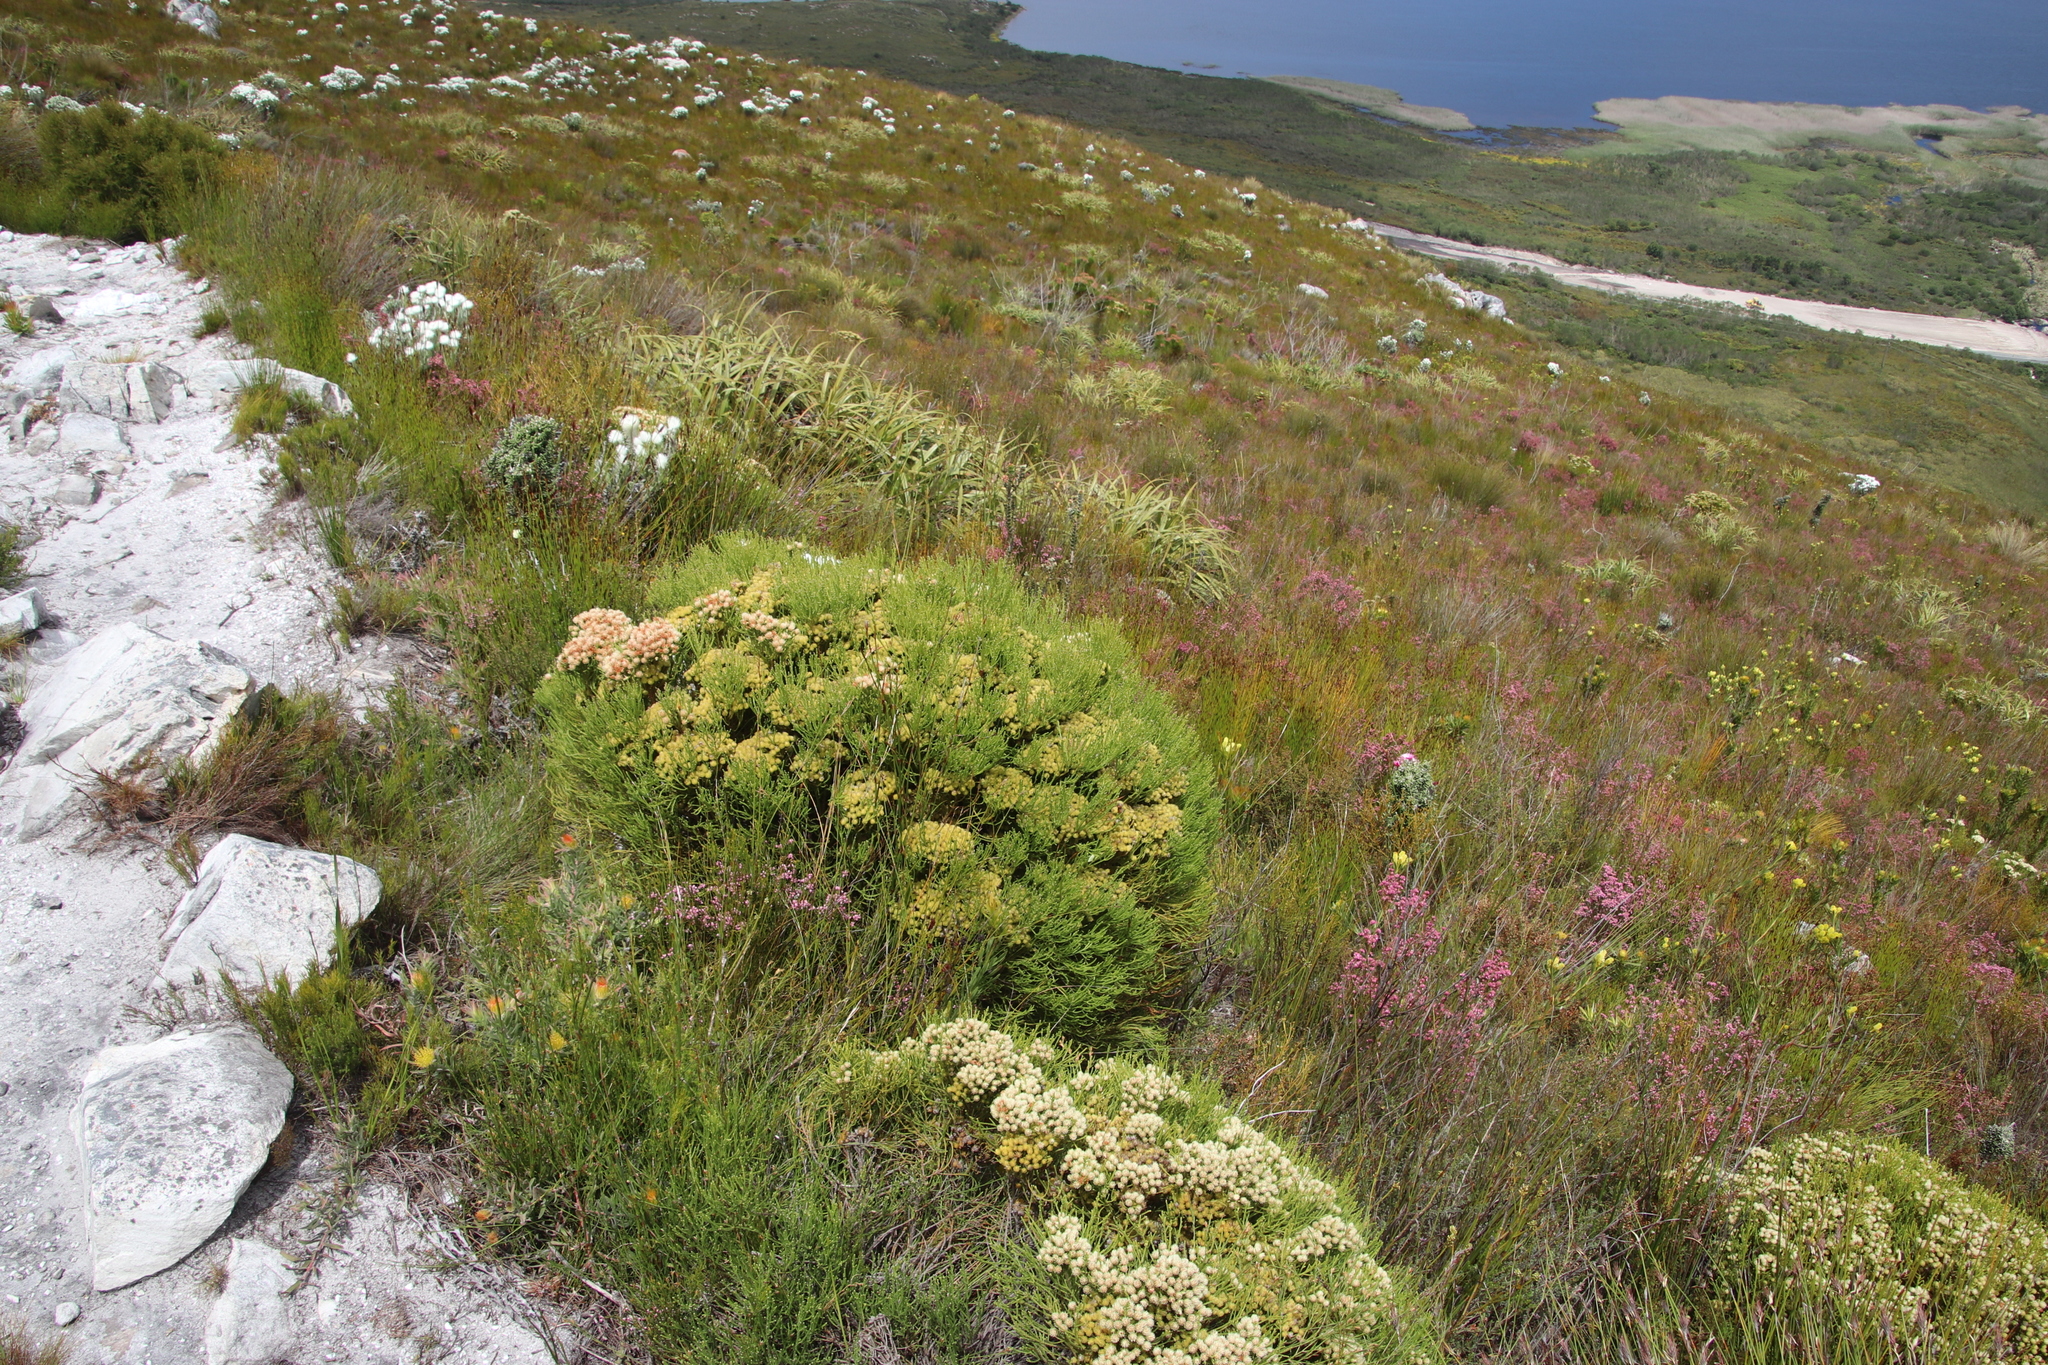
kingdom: Plantae
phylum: Tracheophyta
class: Magnoliopsida
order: Bruniales
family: Bruniaceae
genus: Brunia
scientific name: Brunia paleacea
